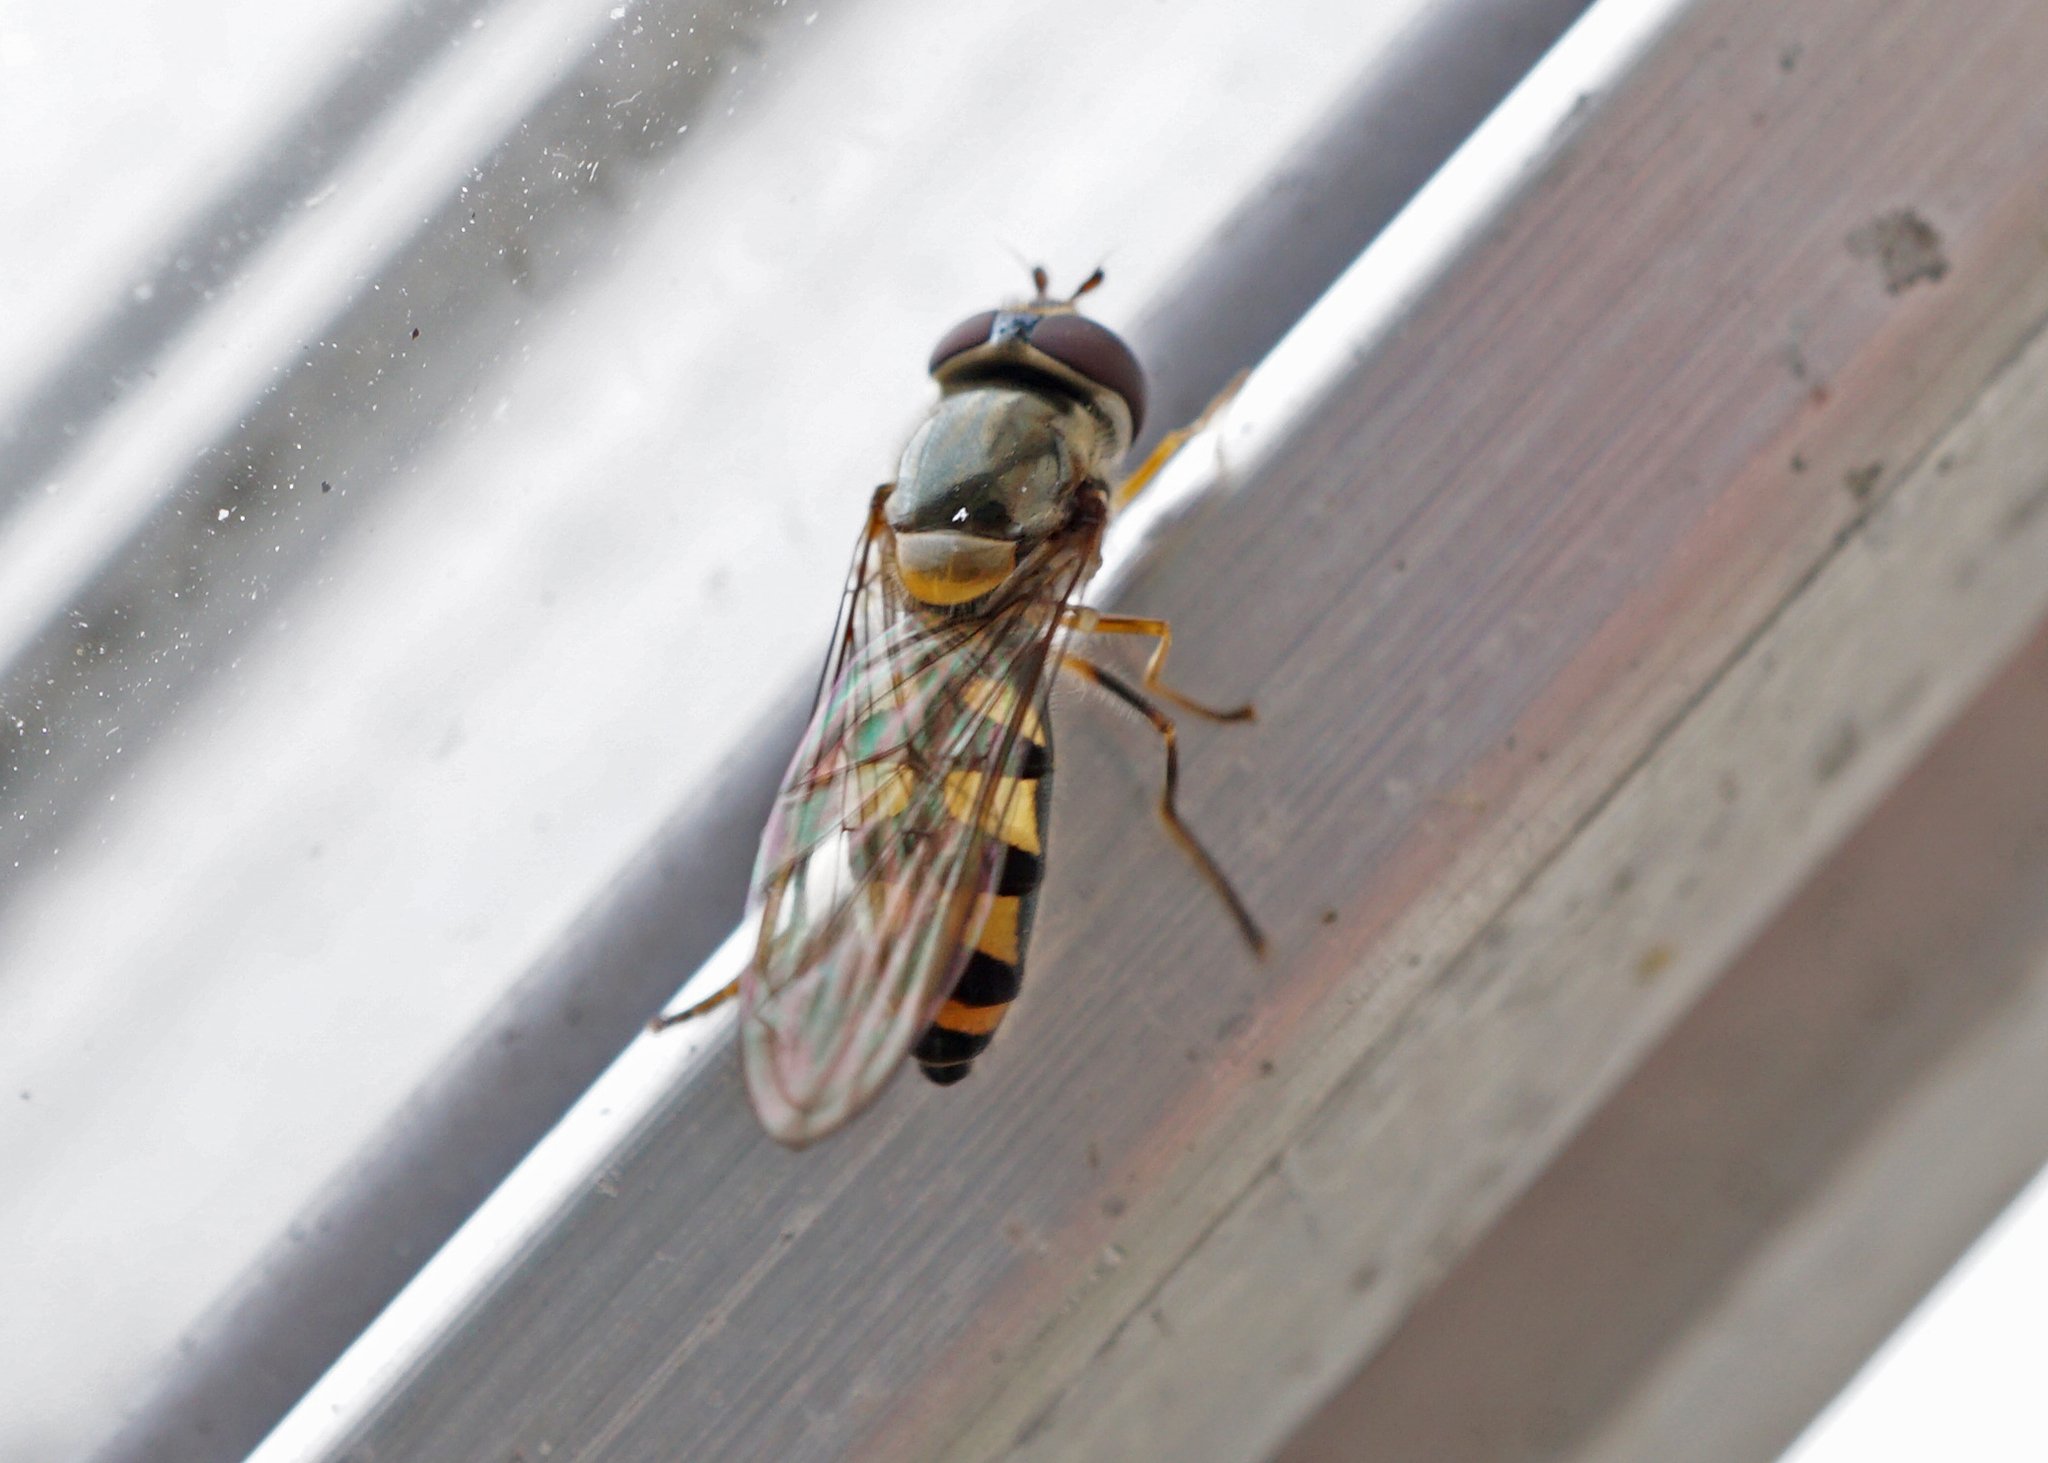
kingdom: Animalia
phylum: Arthropoda
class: Insecta
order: Diptera
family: Syrphidae
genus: Meliscaeva
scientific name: Meliscaeva auricollis
